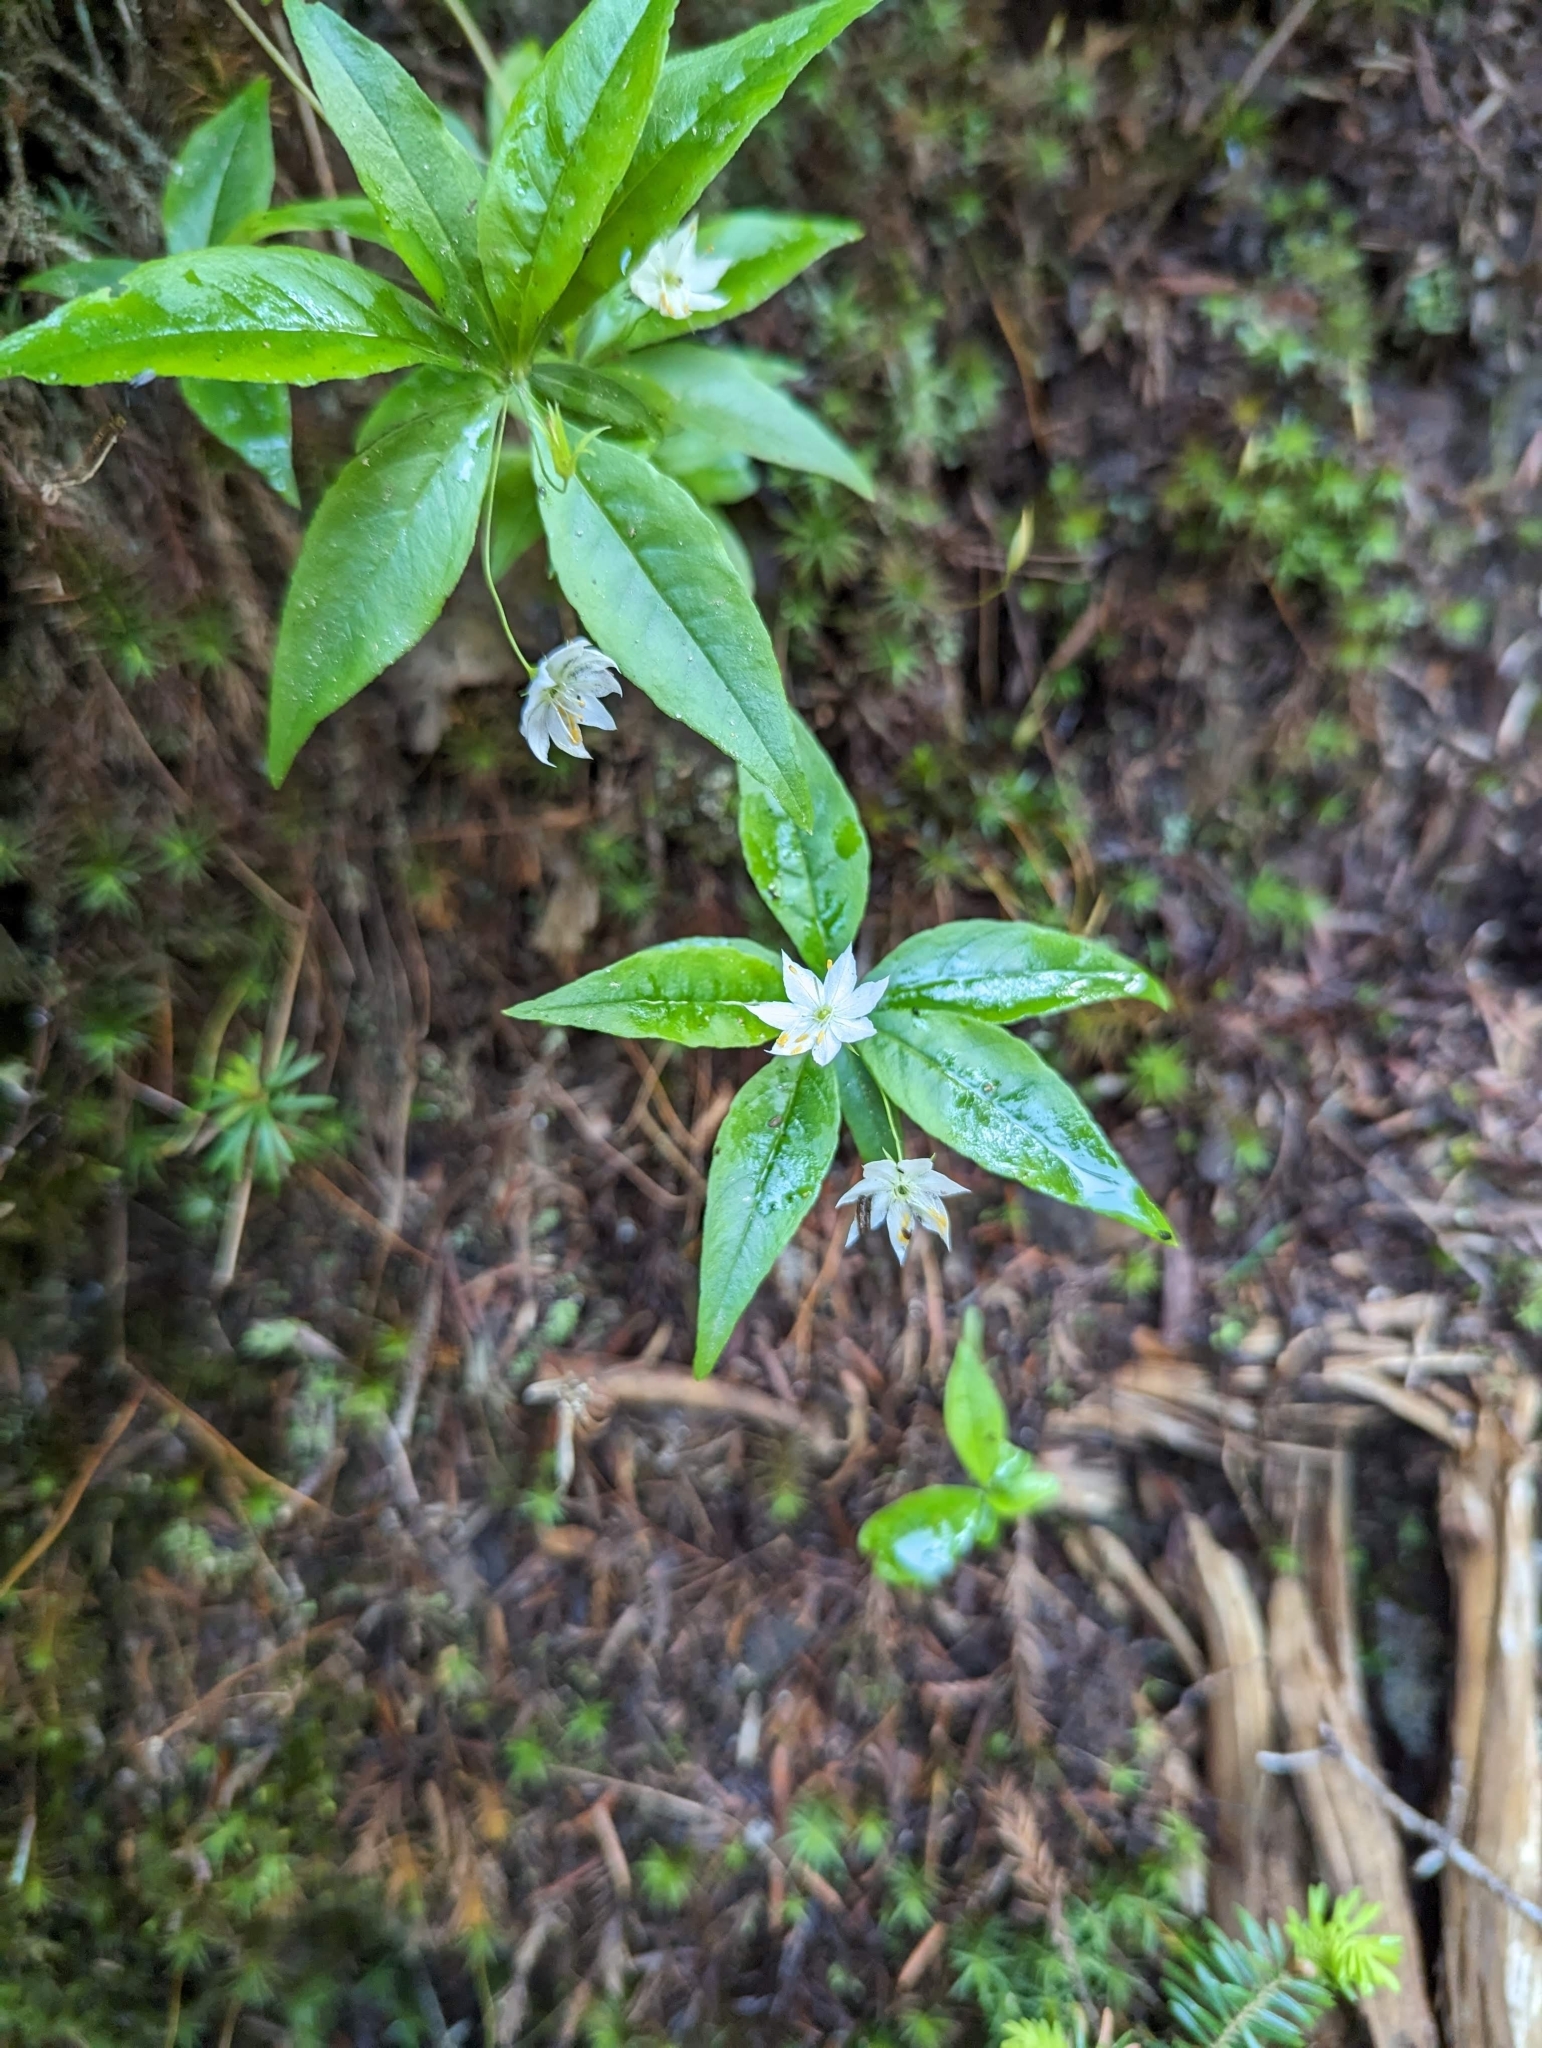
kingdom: Plantae
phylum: Tracheophyta
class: Magnoliopsida
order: Ericales
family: Primulaceae
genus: Lysimachia
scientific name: Lysimachia borealis
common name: American starflower
